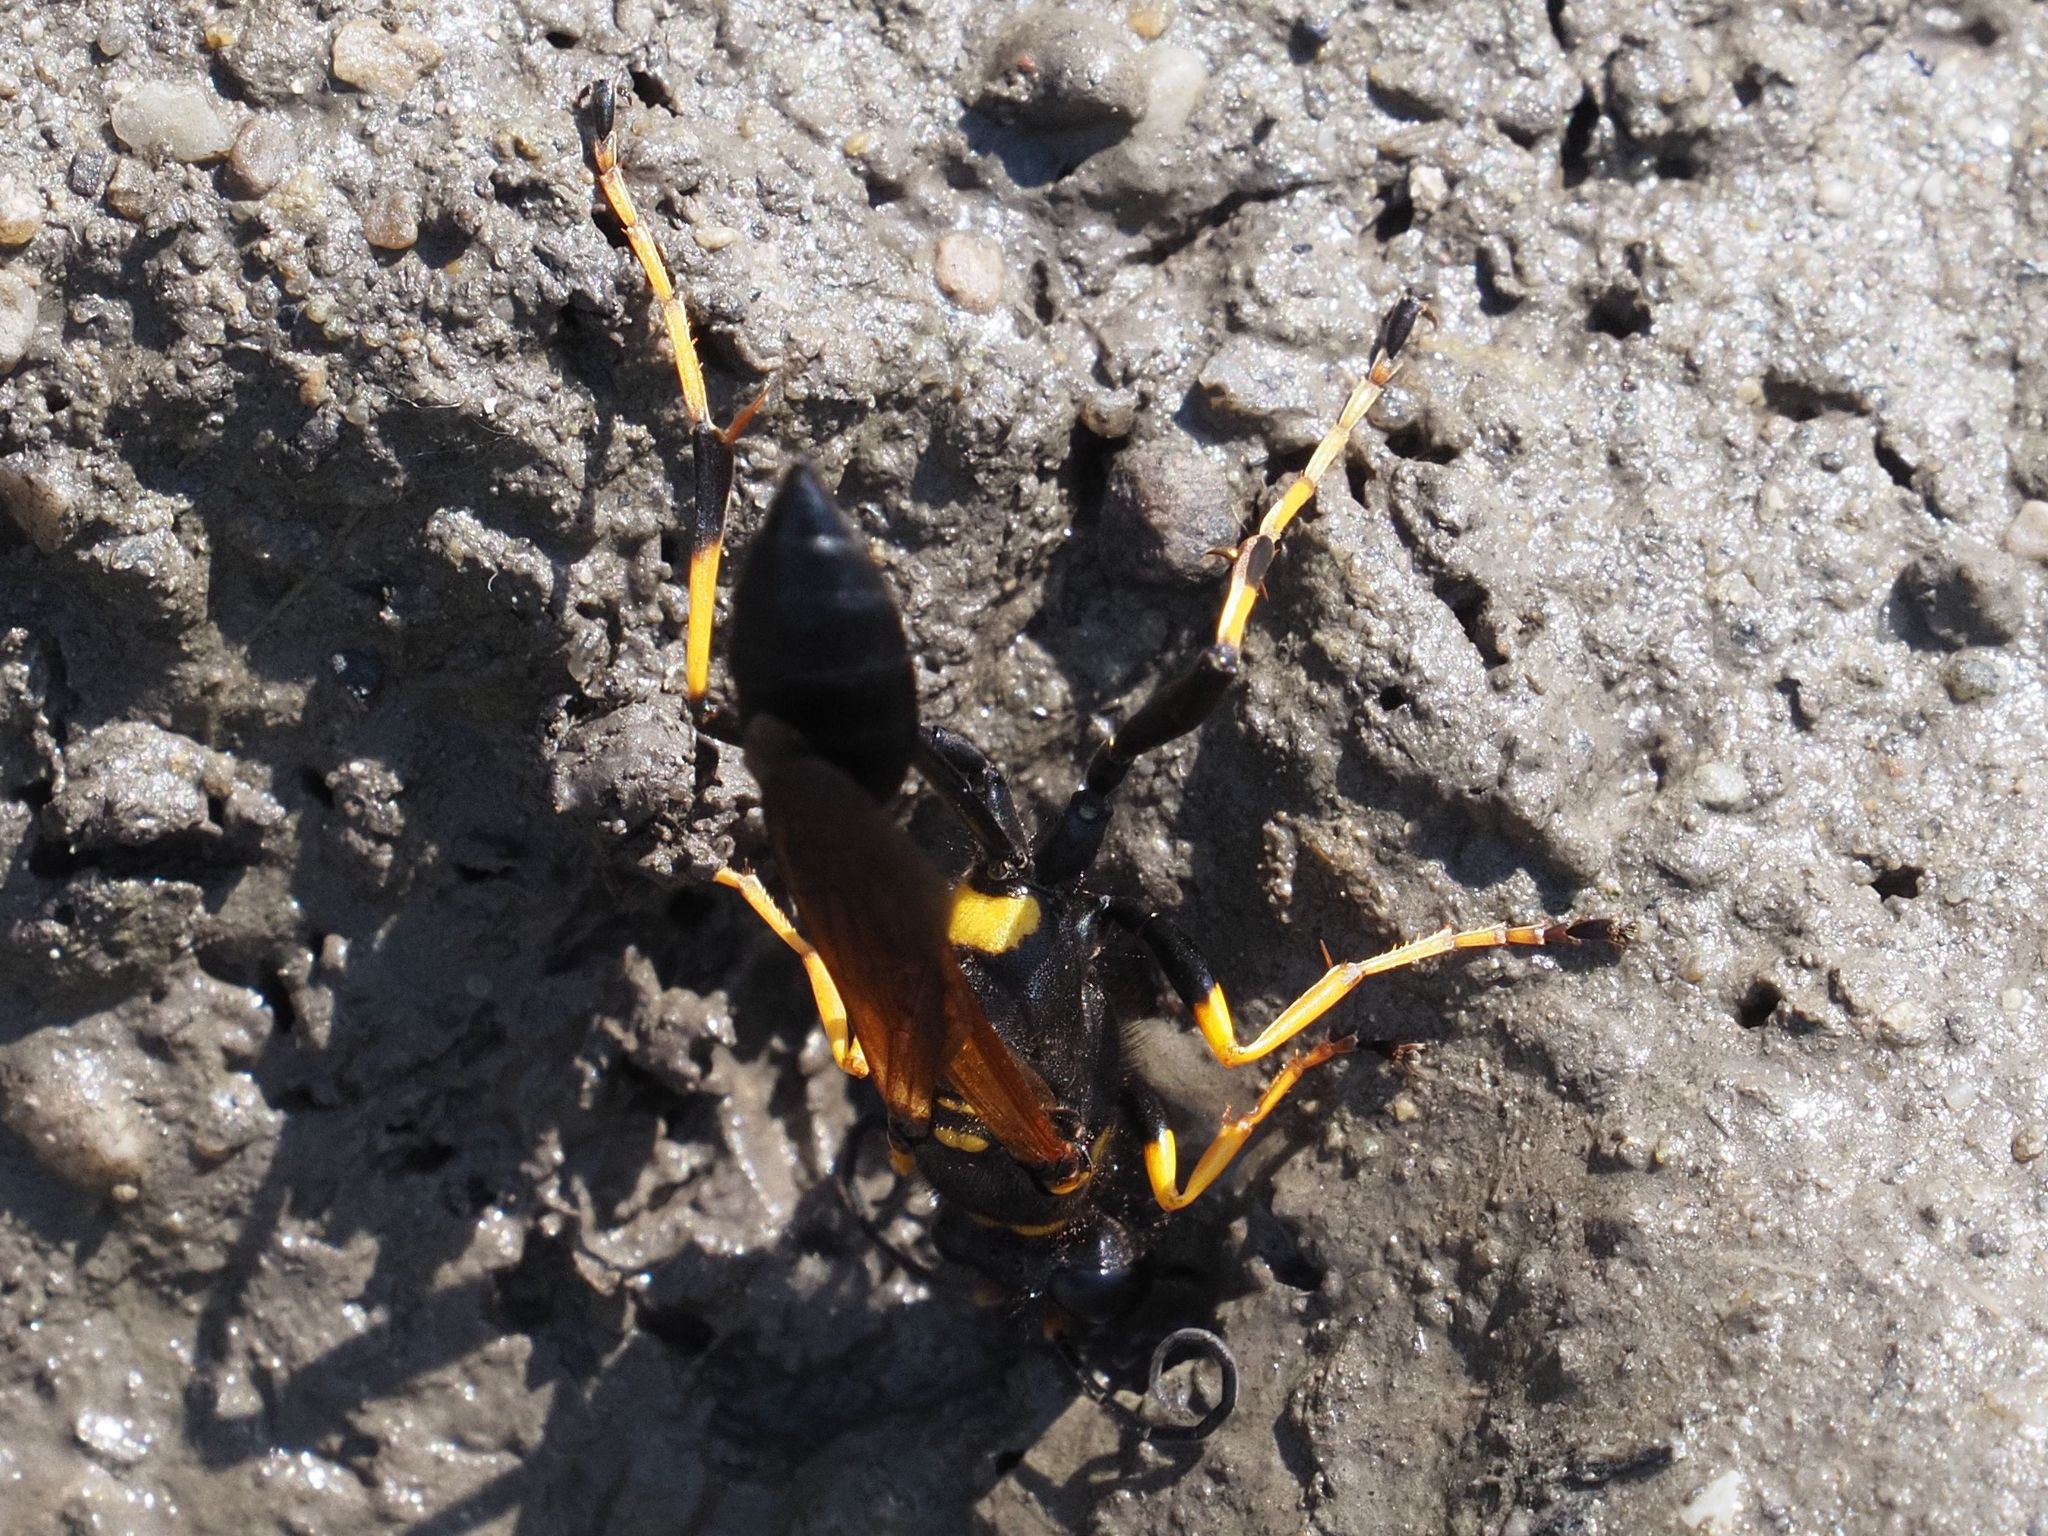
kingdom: Animalia
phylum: Arthropoda
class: Insecta
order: Hymenoptera
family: Sphecidae
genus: Sceliphron
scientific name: Sceliphron caementarium
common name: Mud dauber
